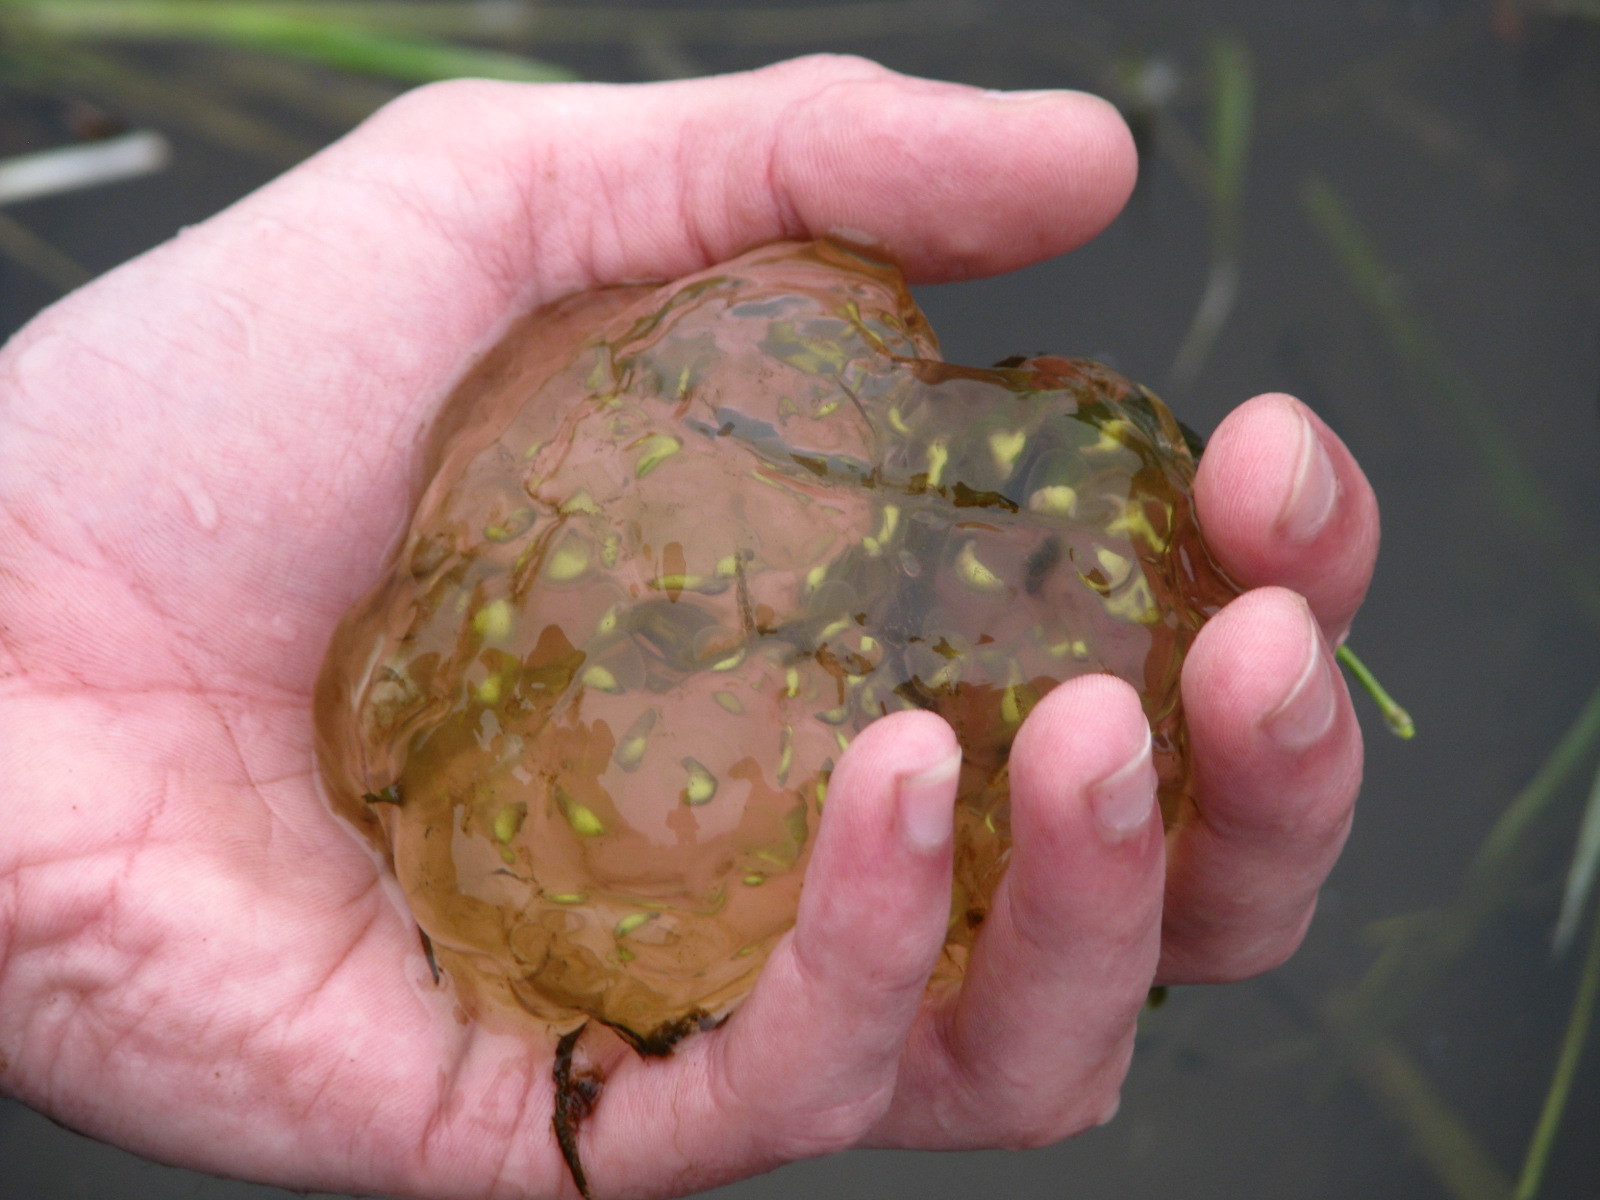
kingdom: Animalia
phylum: Chordata
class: Amphibia
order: Caudata
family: Ambystomatidae
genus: Ambystoma
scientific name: Ambystoma gracile
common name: Northwestern salamander
